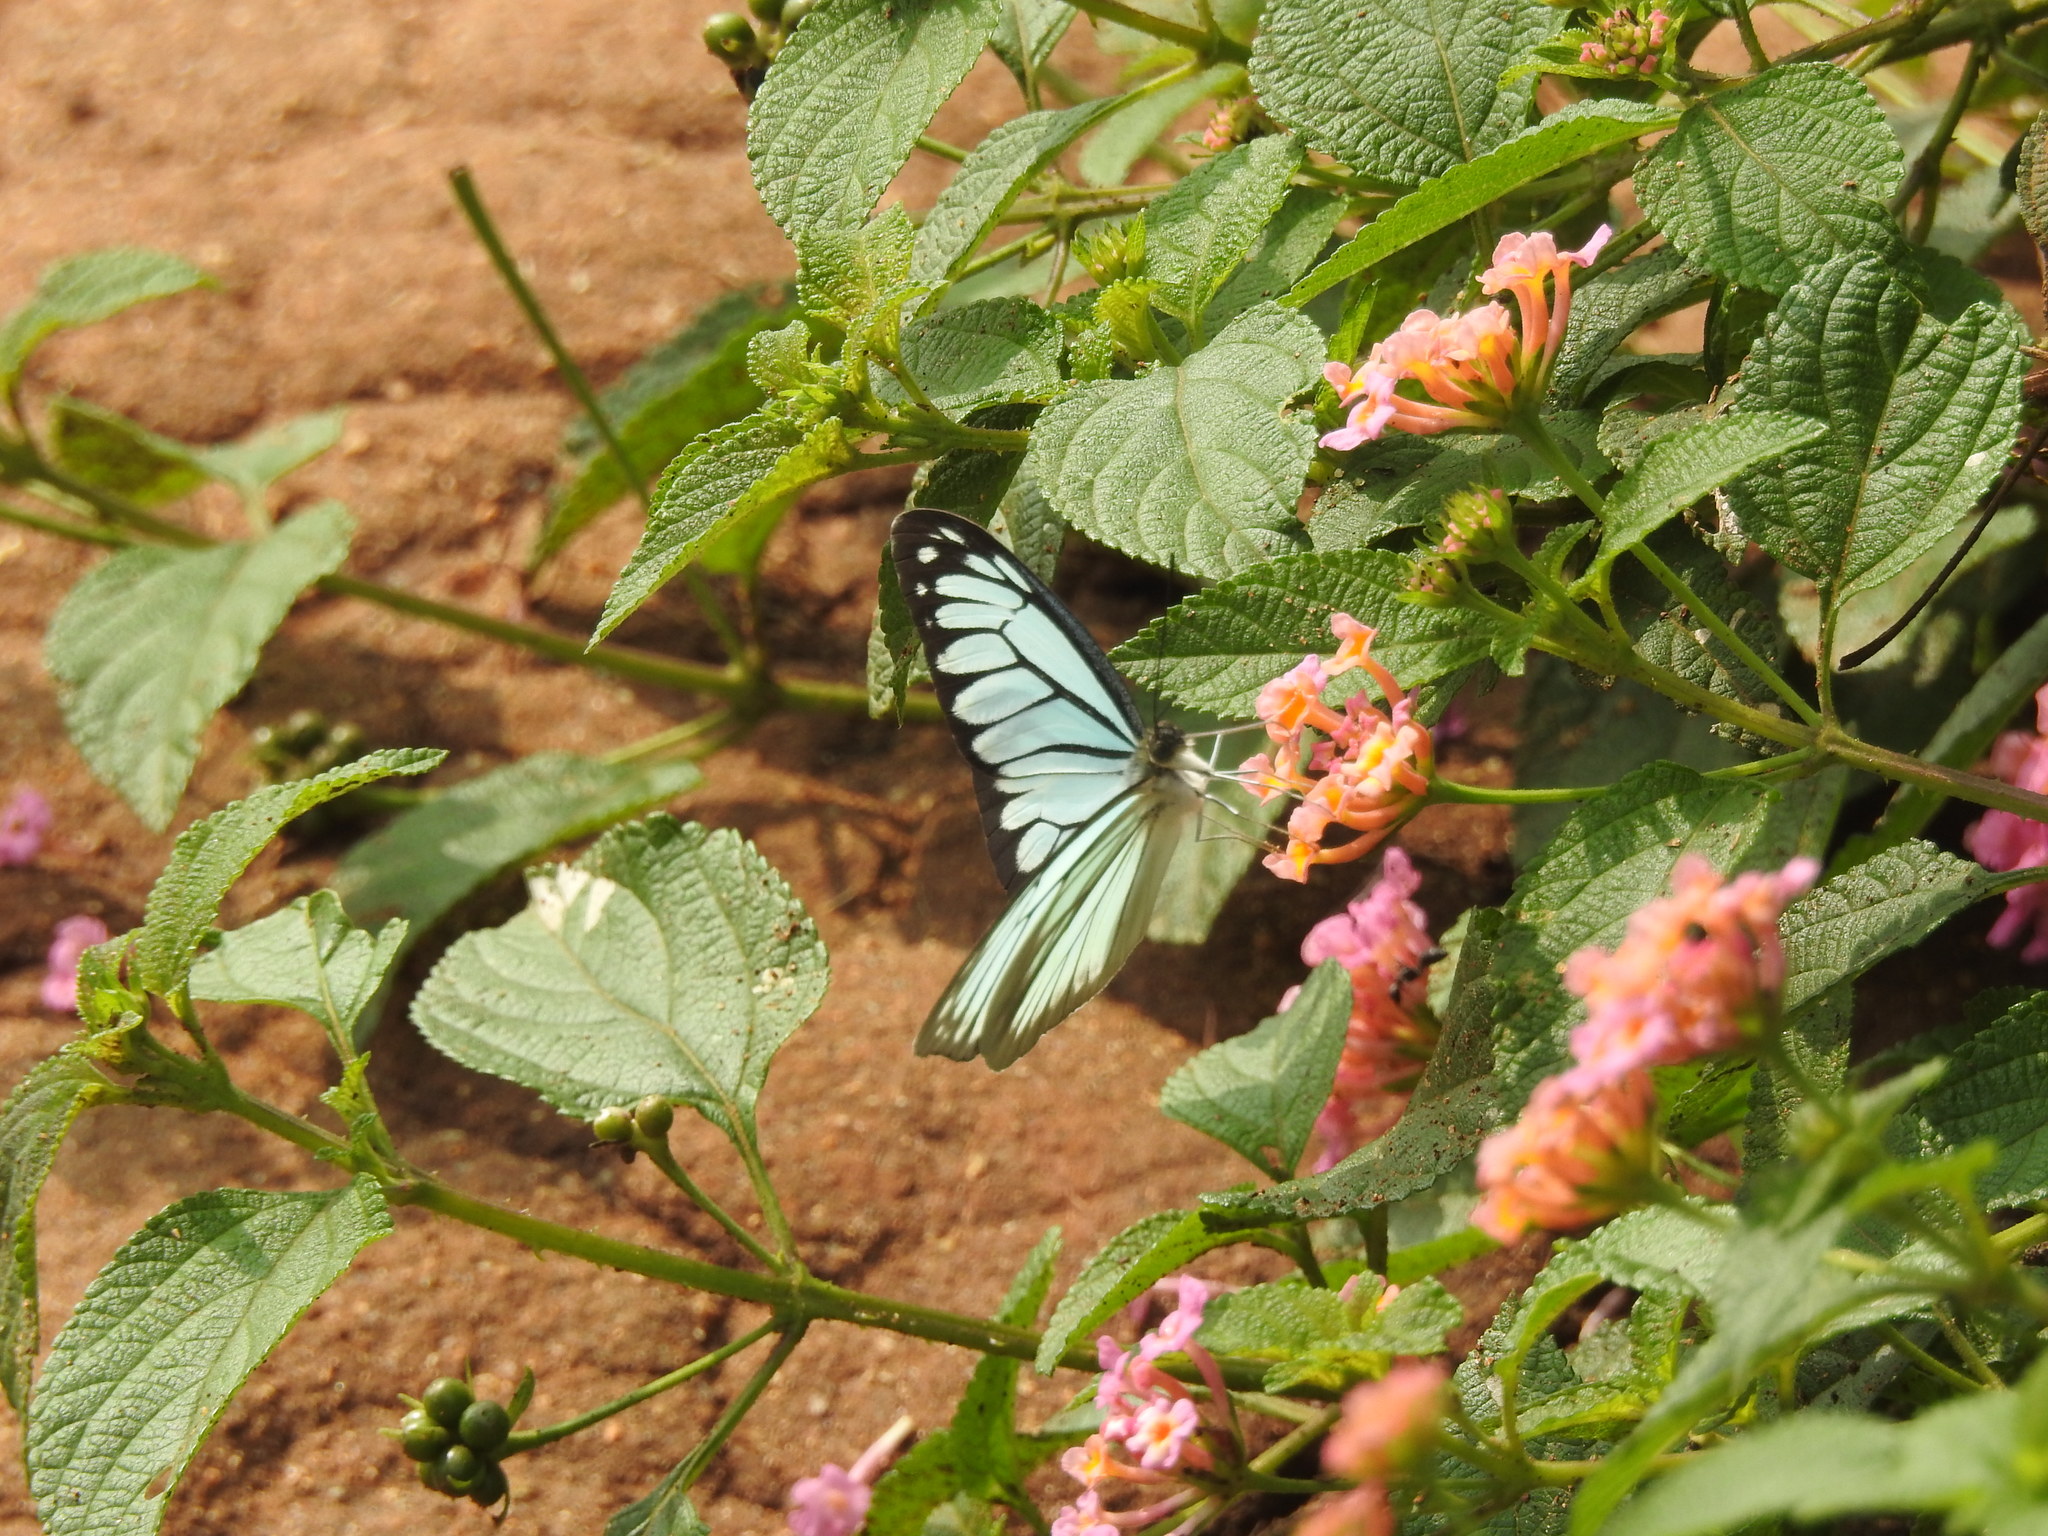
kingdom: Animalia
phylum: Arthropoda
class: Insecta
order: Lepidoptera
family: Pieridae
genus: Pareronia
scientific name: Pareronia hippia
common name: Indian wanderer
